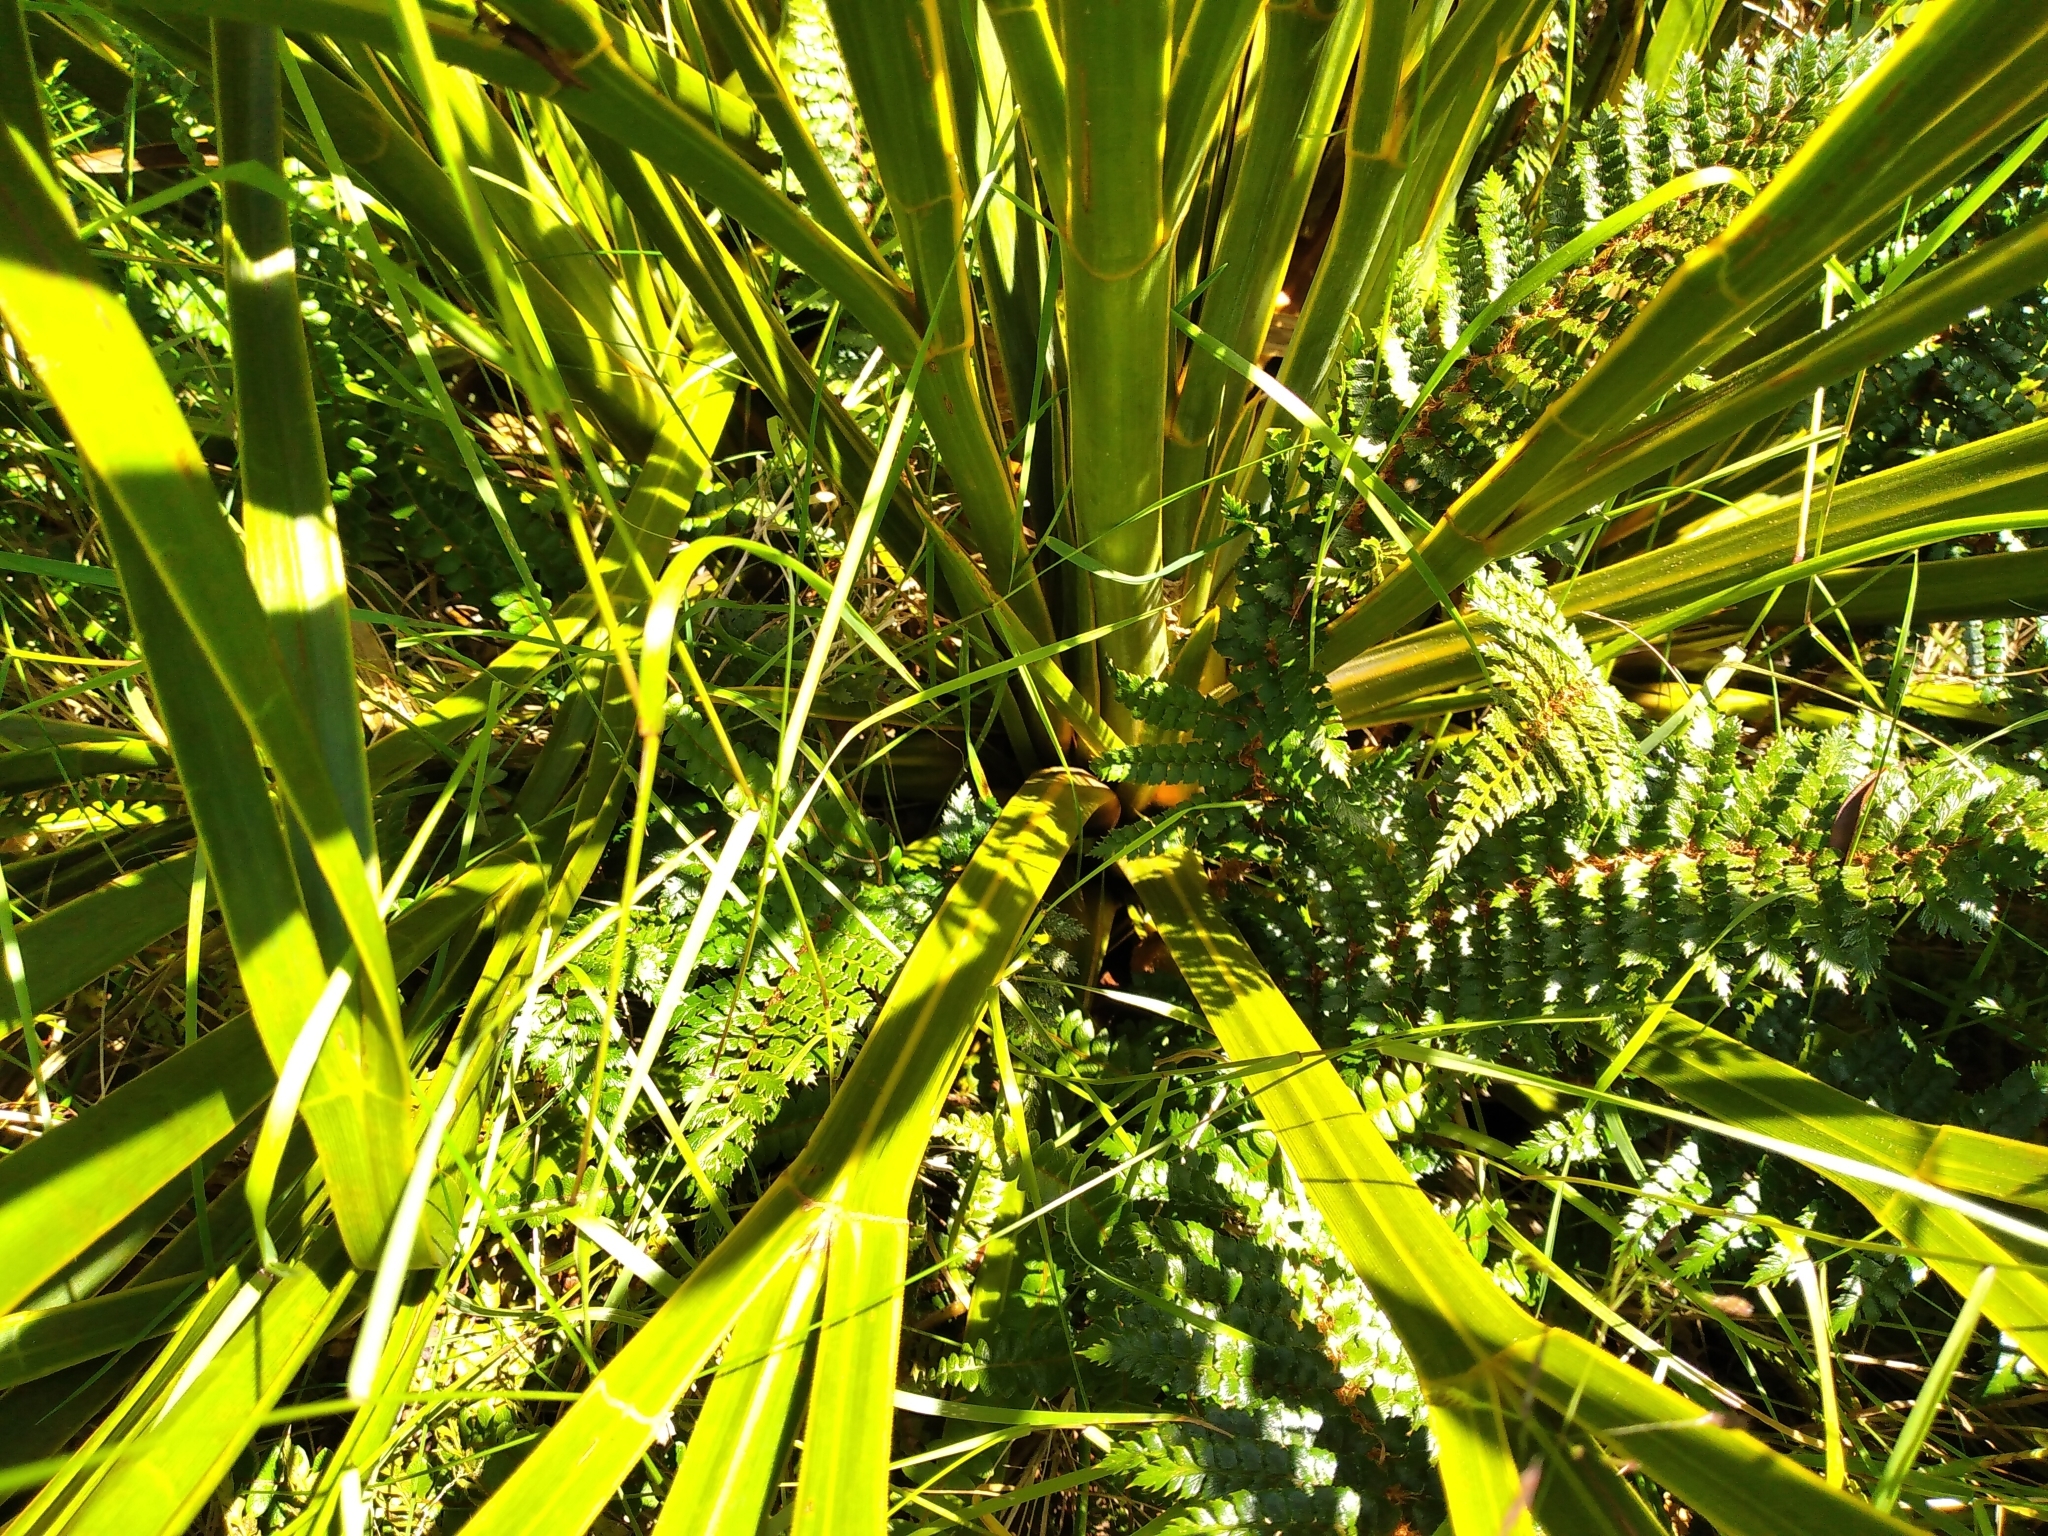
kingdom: Plantae
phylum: Tracheophyta
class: Magnoliopsida
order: Apiales
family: Apiaceae
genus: Aciphylla
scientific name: Aciphylla horrida
